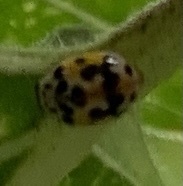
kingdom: Animalia
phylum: Arthropoda
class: Insecta
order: Coleoptera
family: Coccinellidae
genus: Psyllobora
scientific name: Psyllobora vigintimaculata
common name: Ladybird beetle
